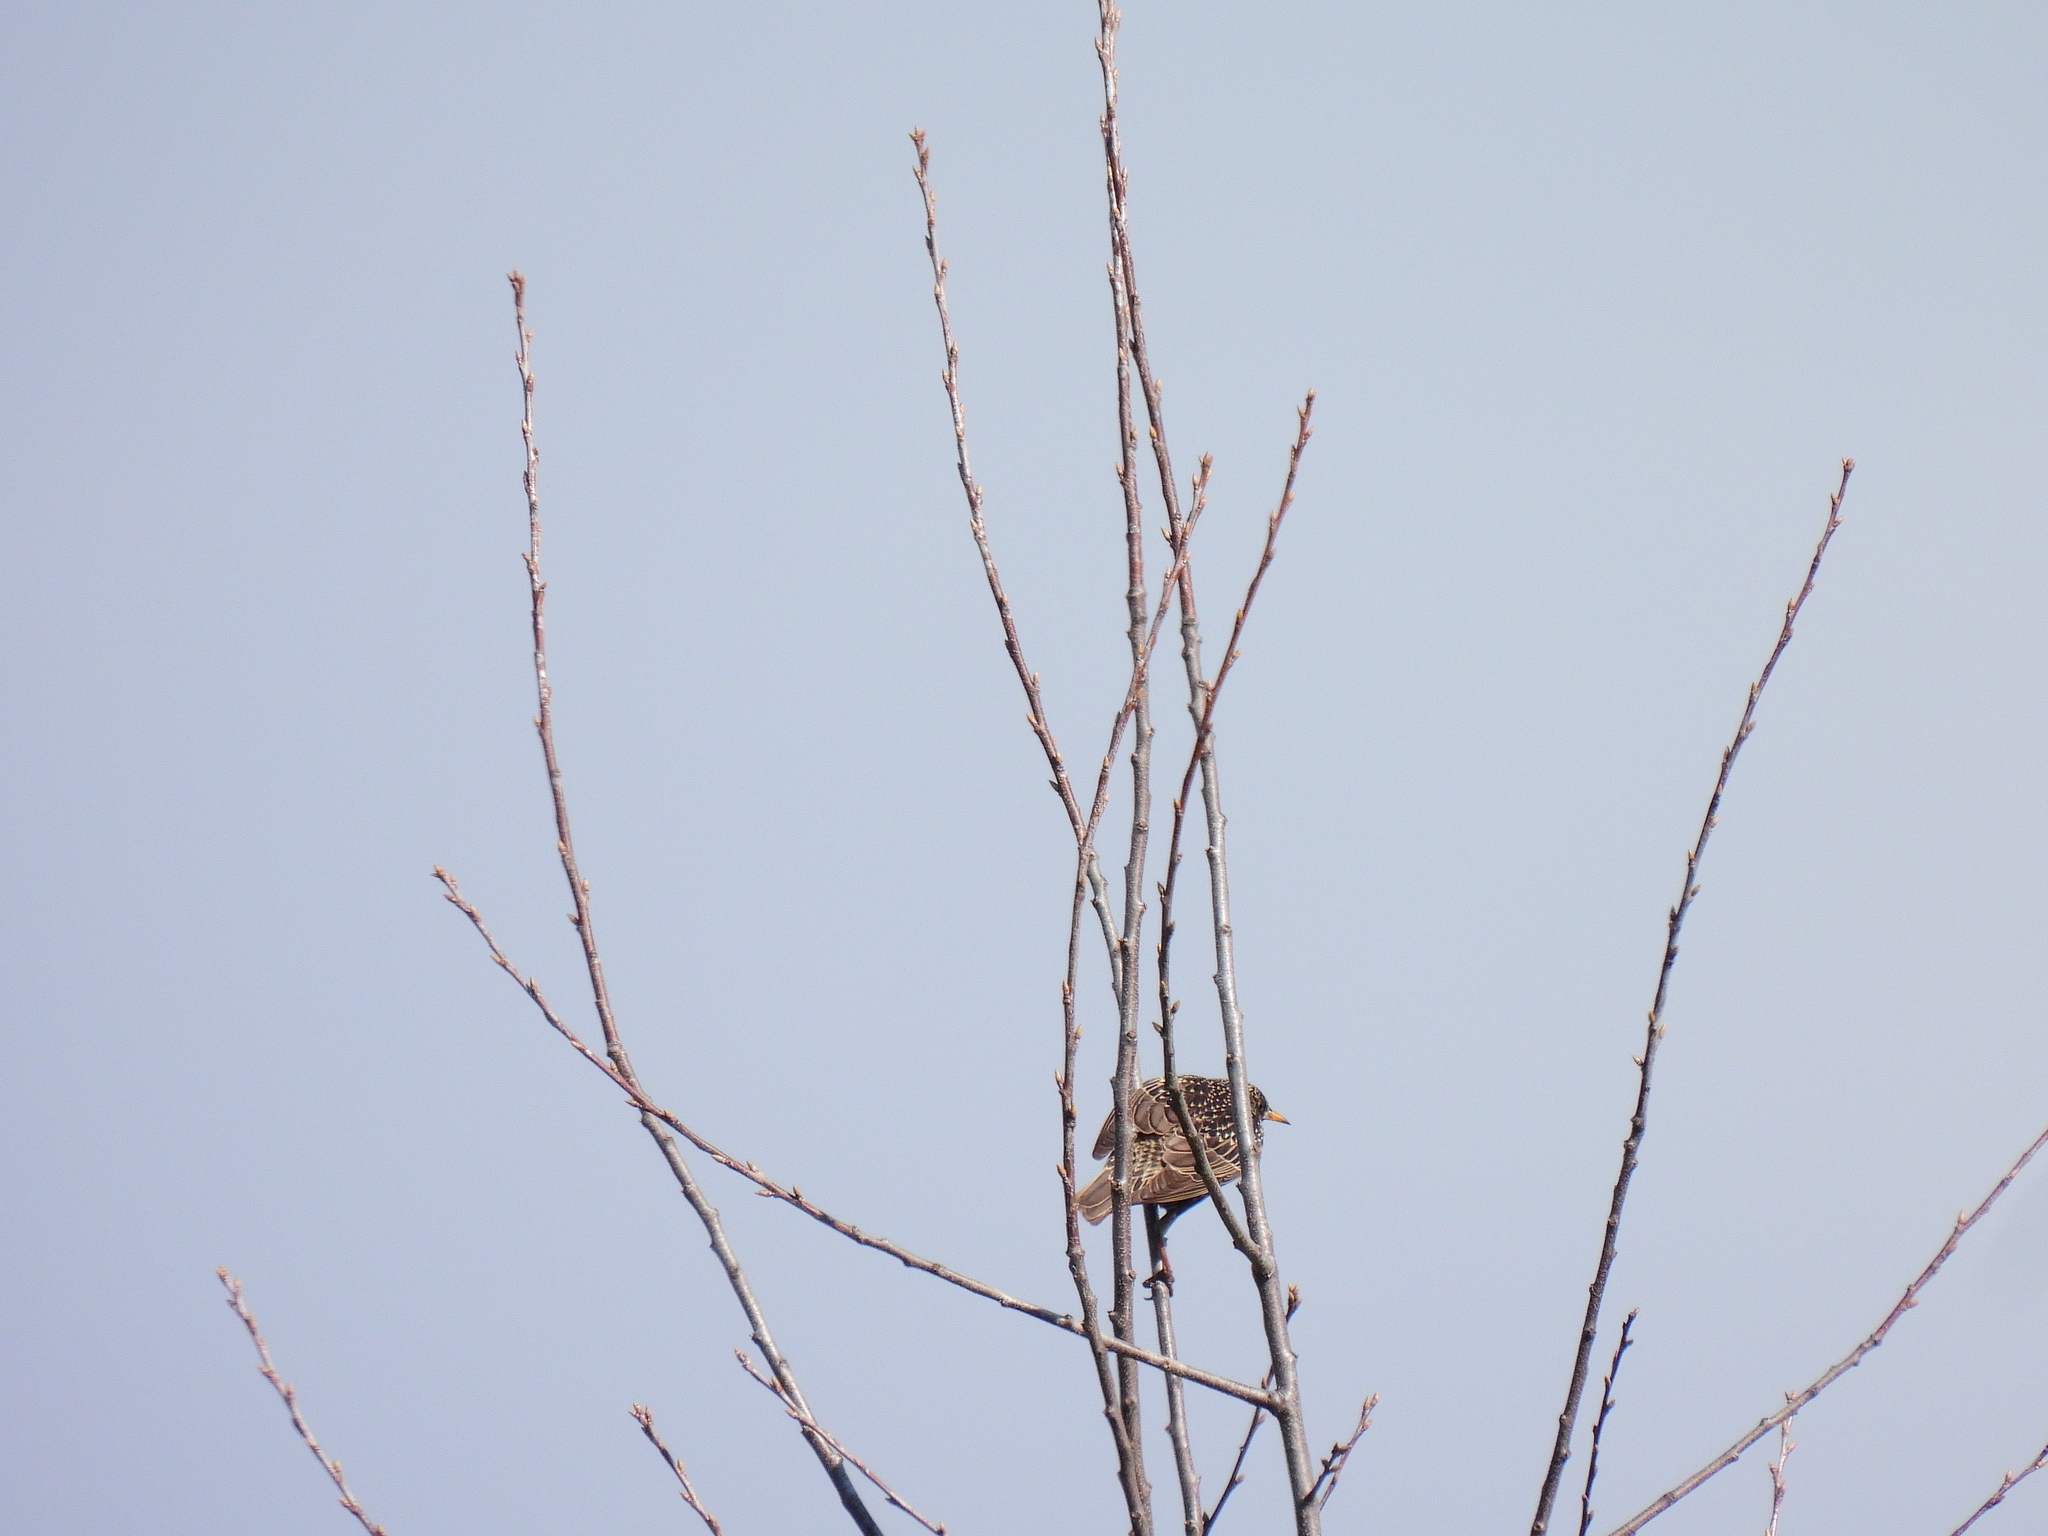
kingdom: Animalia
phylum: Chordata
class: Aves
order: Passeriformes
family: Sturnidae
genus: Sturnus
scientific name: Sturnus vulgaris
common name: Common starling
